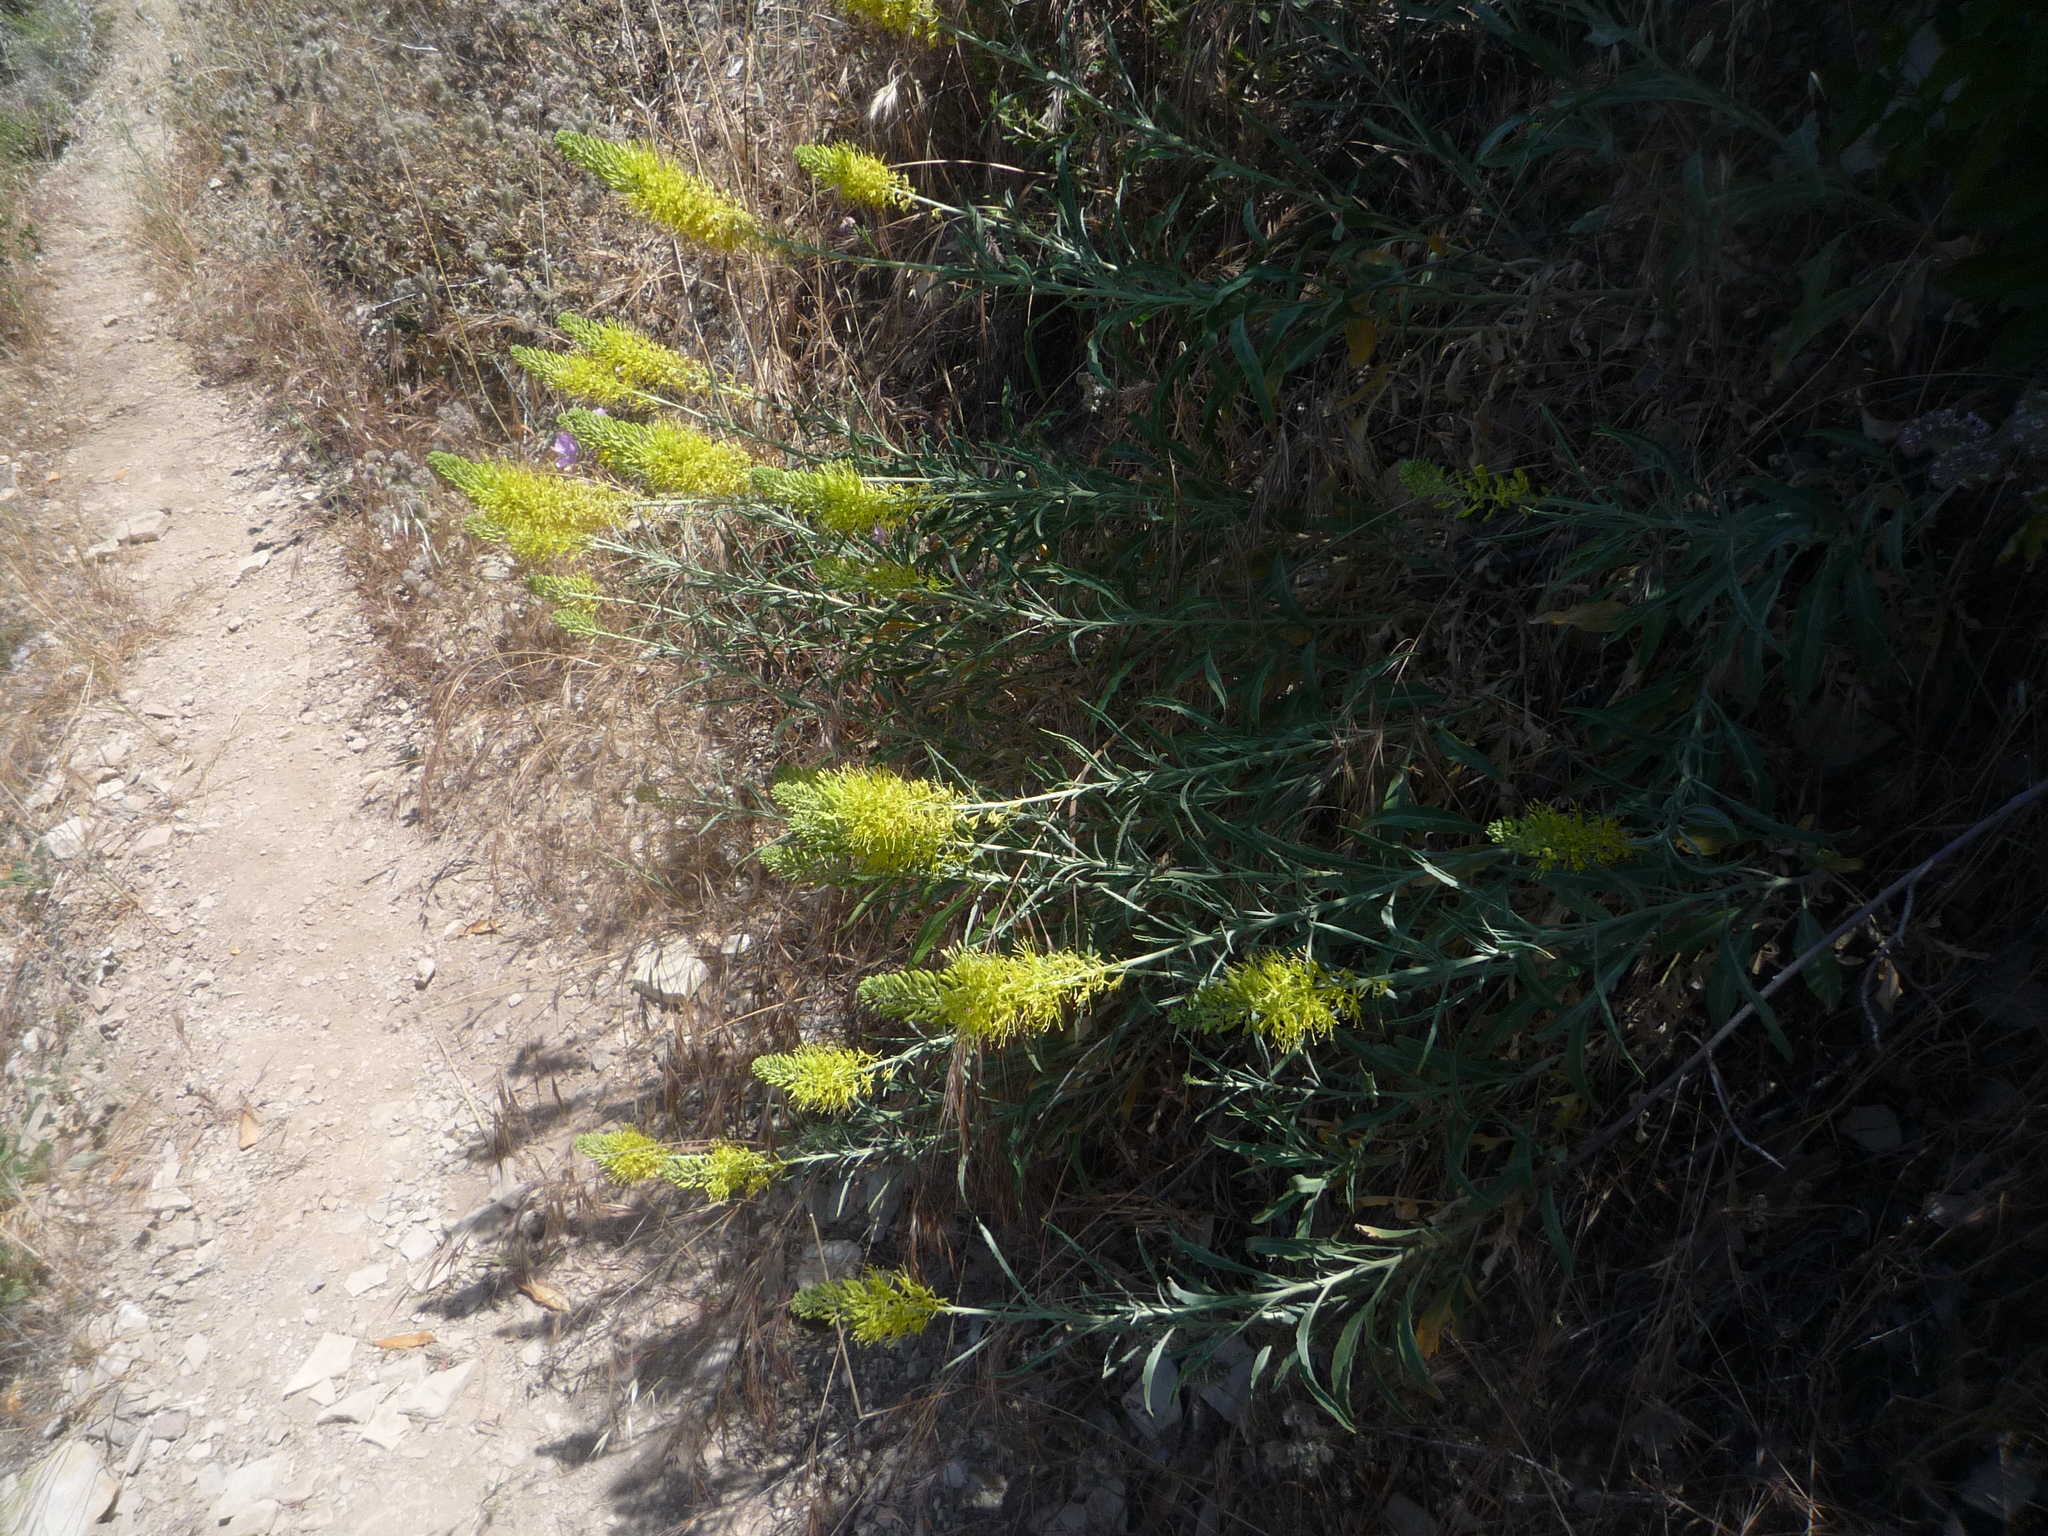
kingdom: Plantae
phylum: Tracheophyta
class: Magnoliopsida
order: Brassicales
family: Brassicaceae
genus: Stanleya
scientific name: Stanleya pinnata
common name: Prince's-plume
